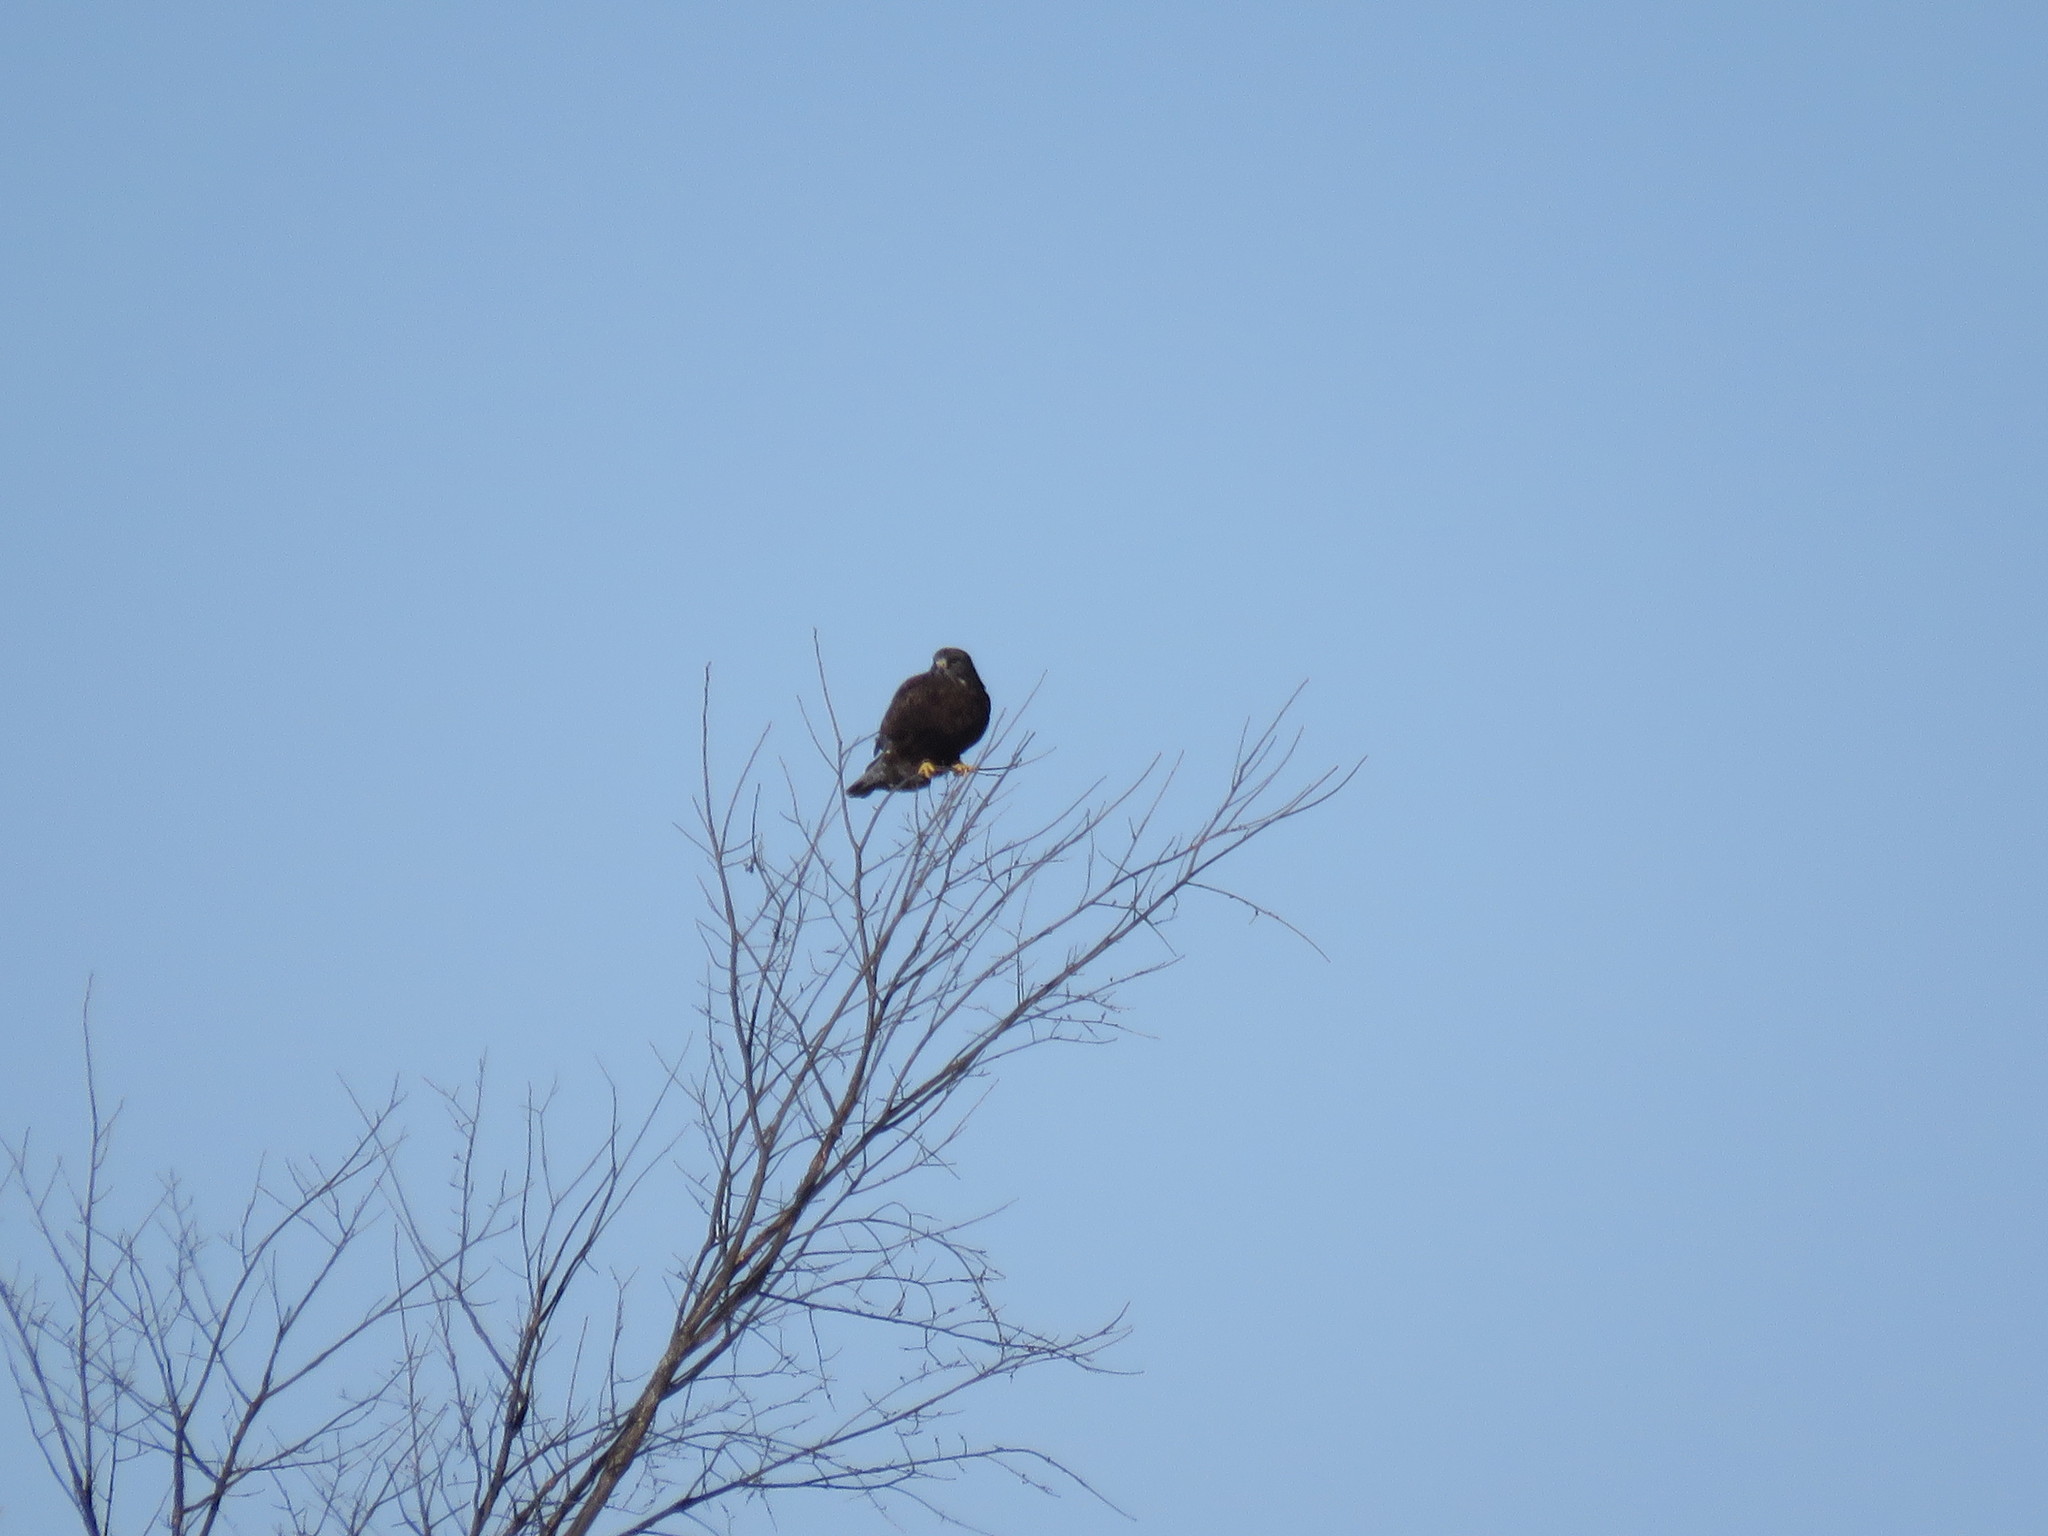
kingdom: Animalia
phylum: Chordata
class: Aves
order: Accipitriformes
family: Accipitridae
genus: Buteo
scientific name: Buteo lagopus
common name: Rough-legged buzzard
